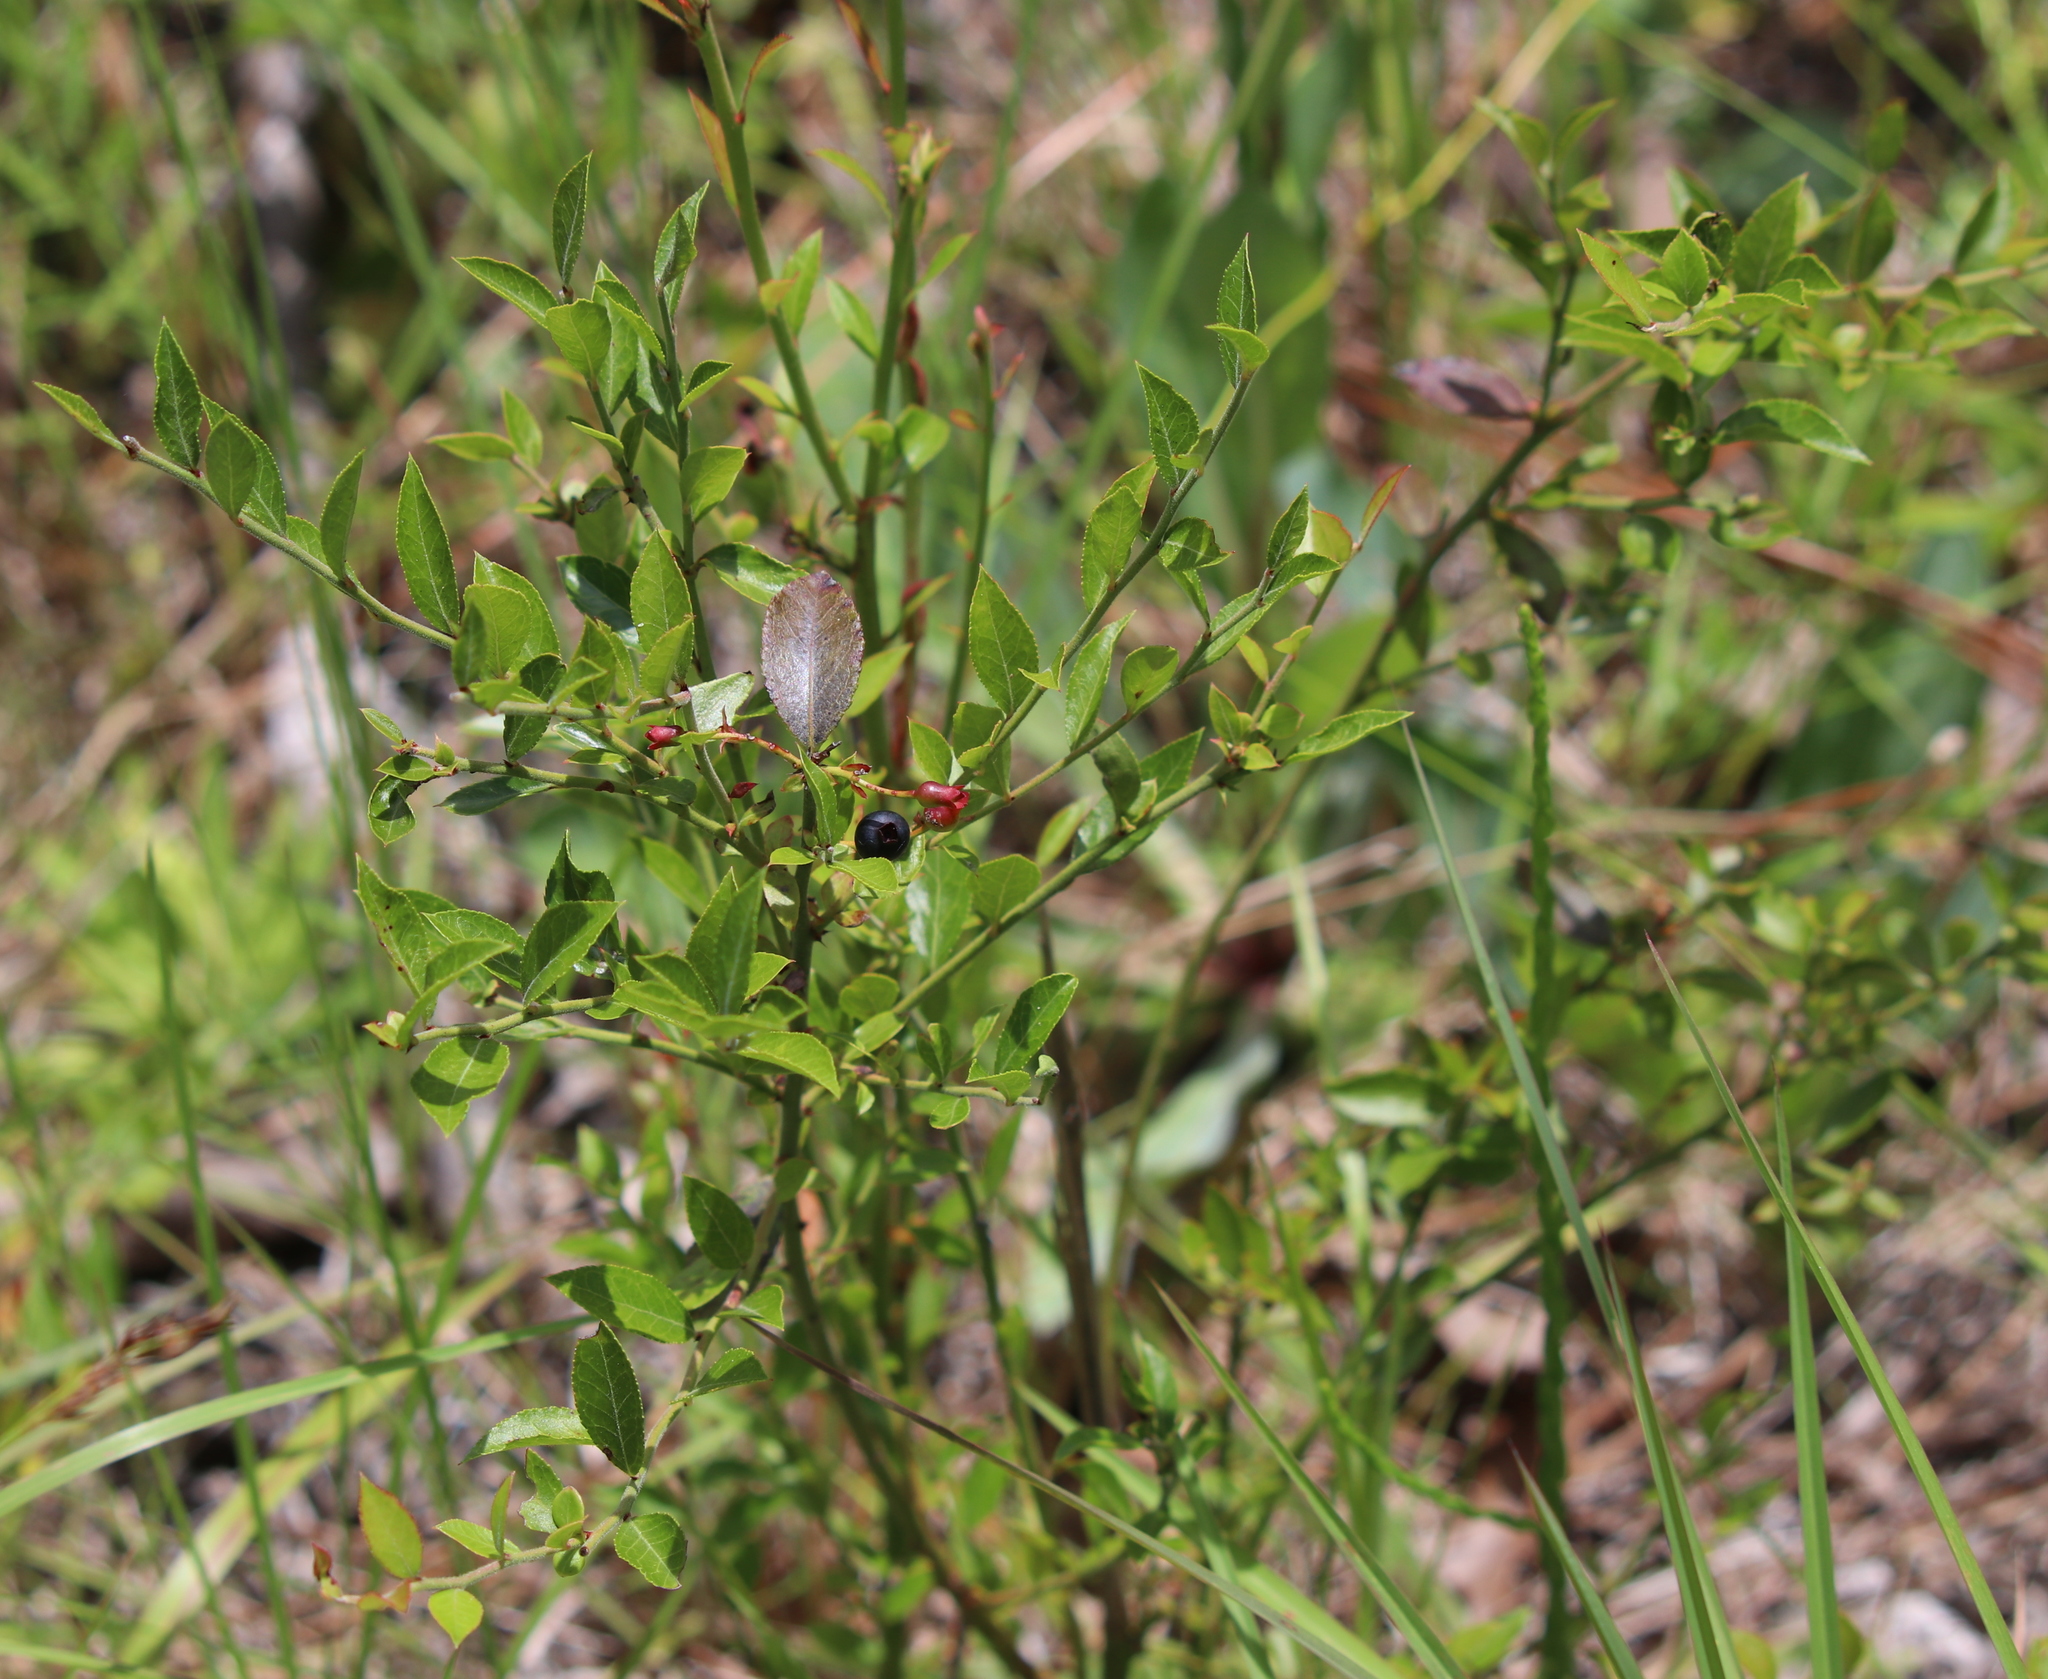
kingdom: Plantae
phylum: Tracheophyta
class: Magnoliopsida
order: Ericales
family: Ericaceae
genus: Vaccinium
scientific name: Vaccinium corymbosum
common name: Blueberry
